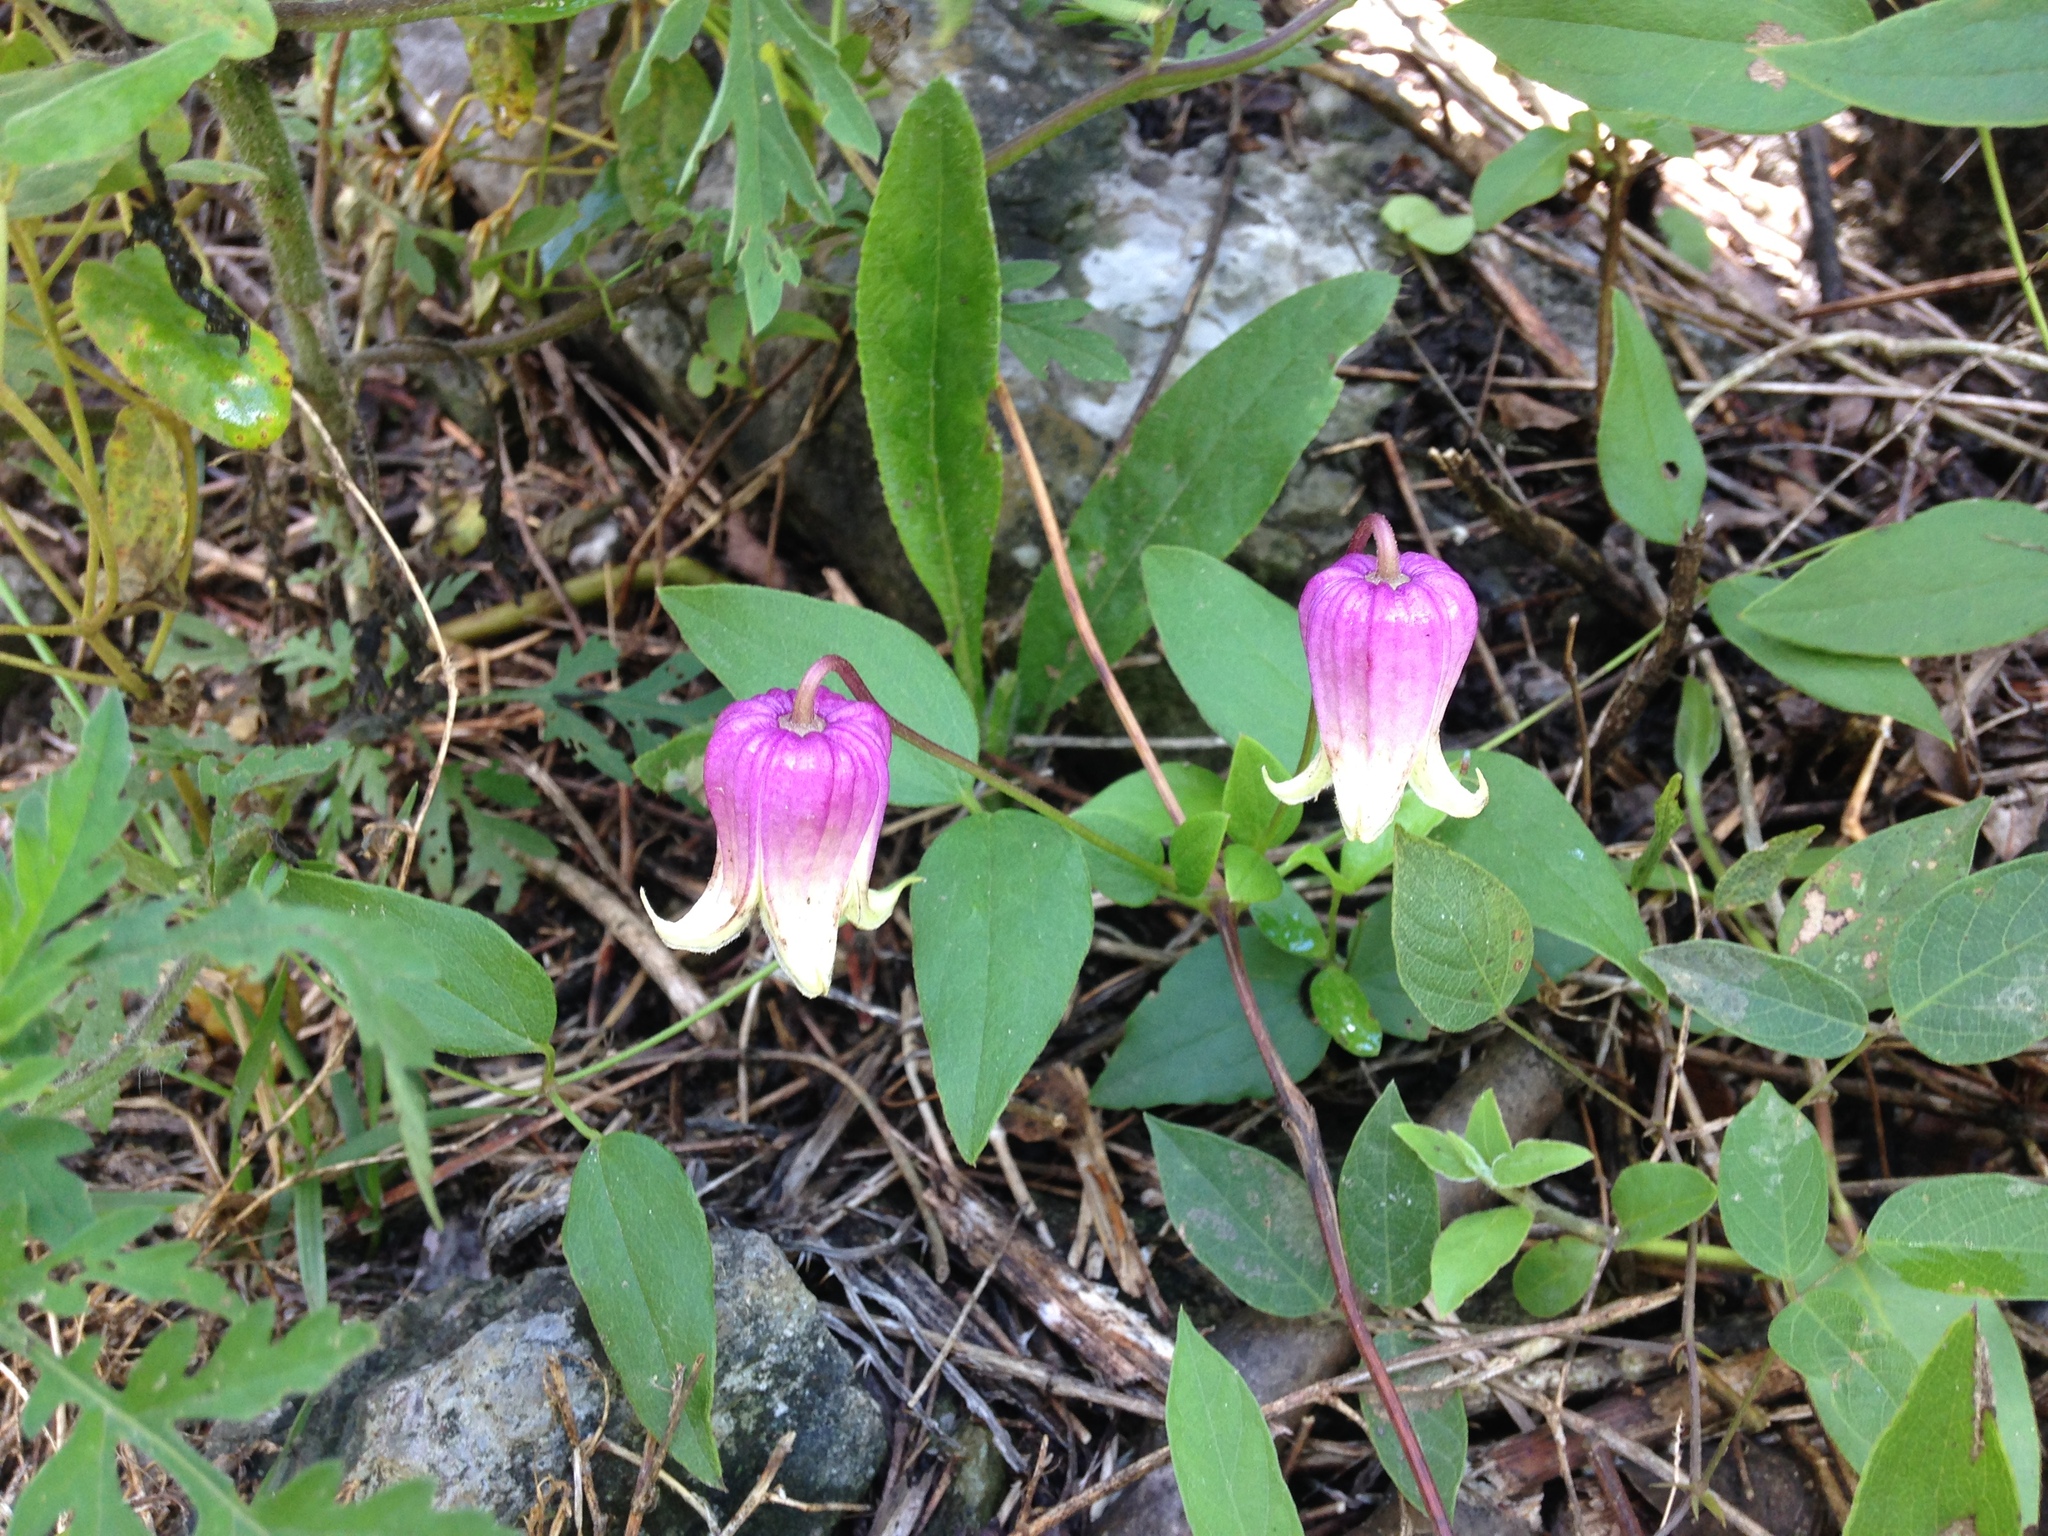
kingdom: Plantae
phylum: Tracheophyta
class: Magnoliopsida
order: Ranunculales
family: Ranunculaceae
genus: Clematis
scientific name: Clematis cumberlandensis
